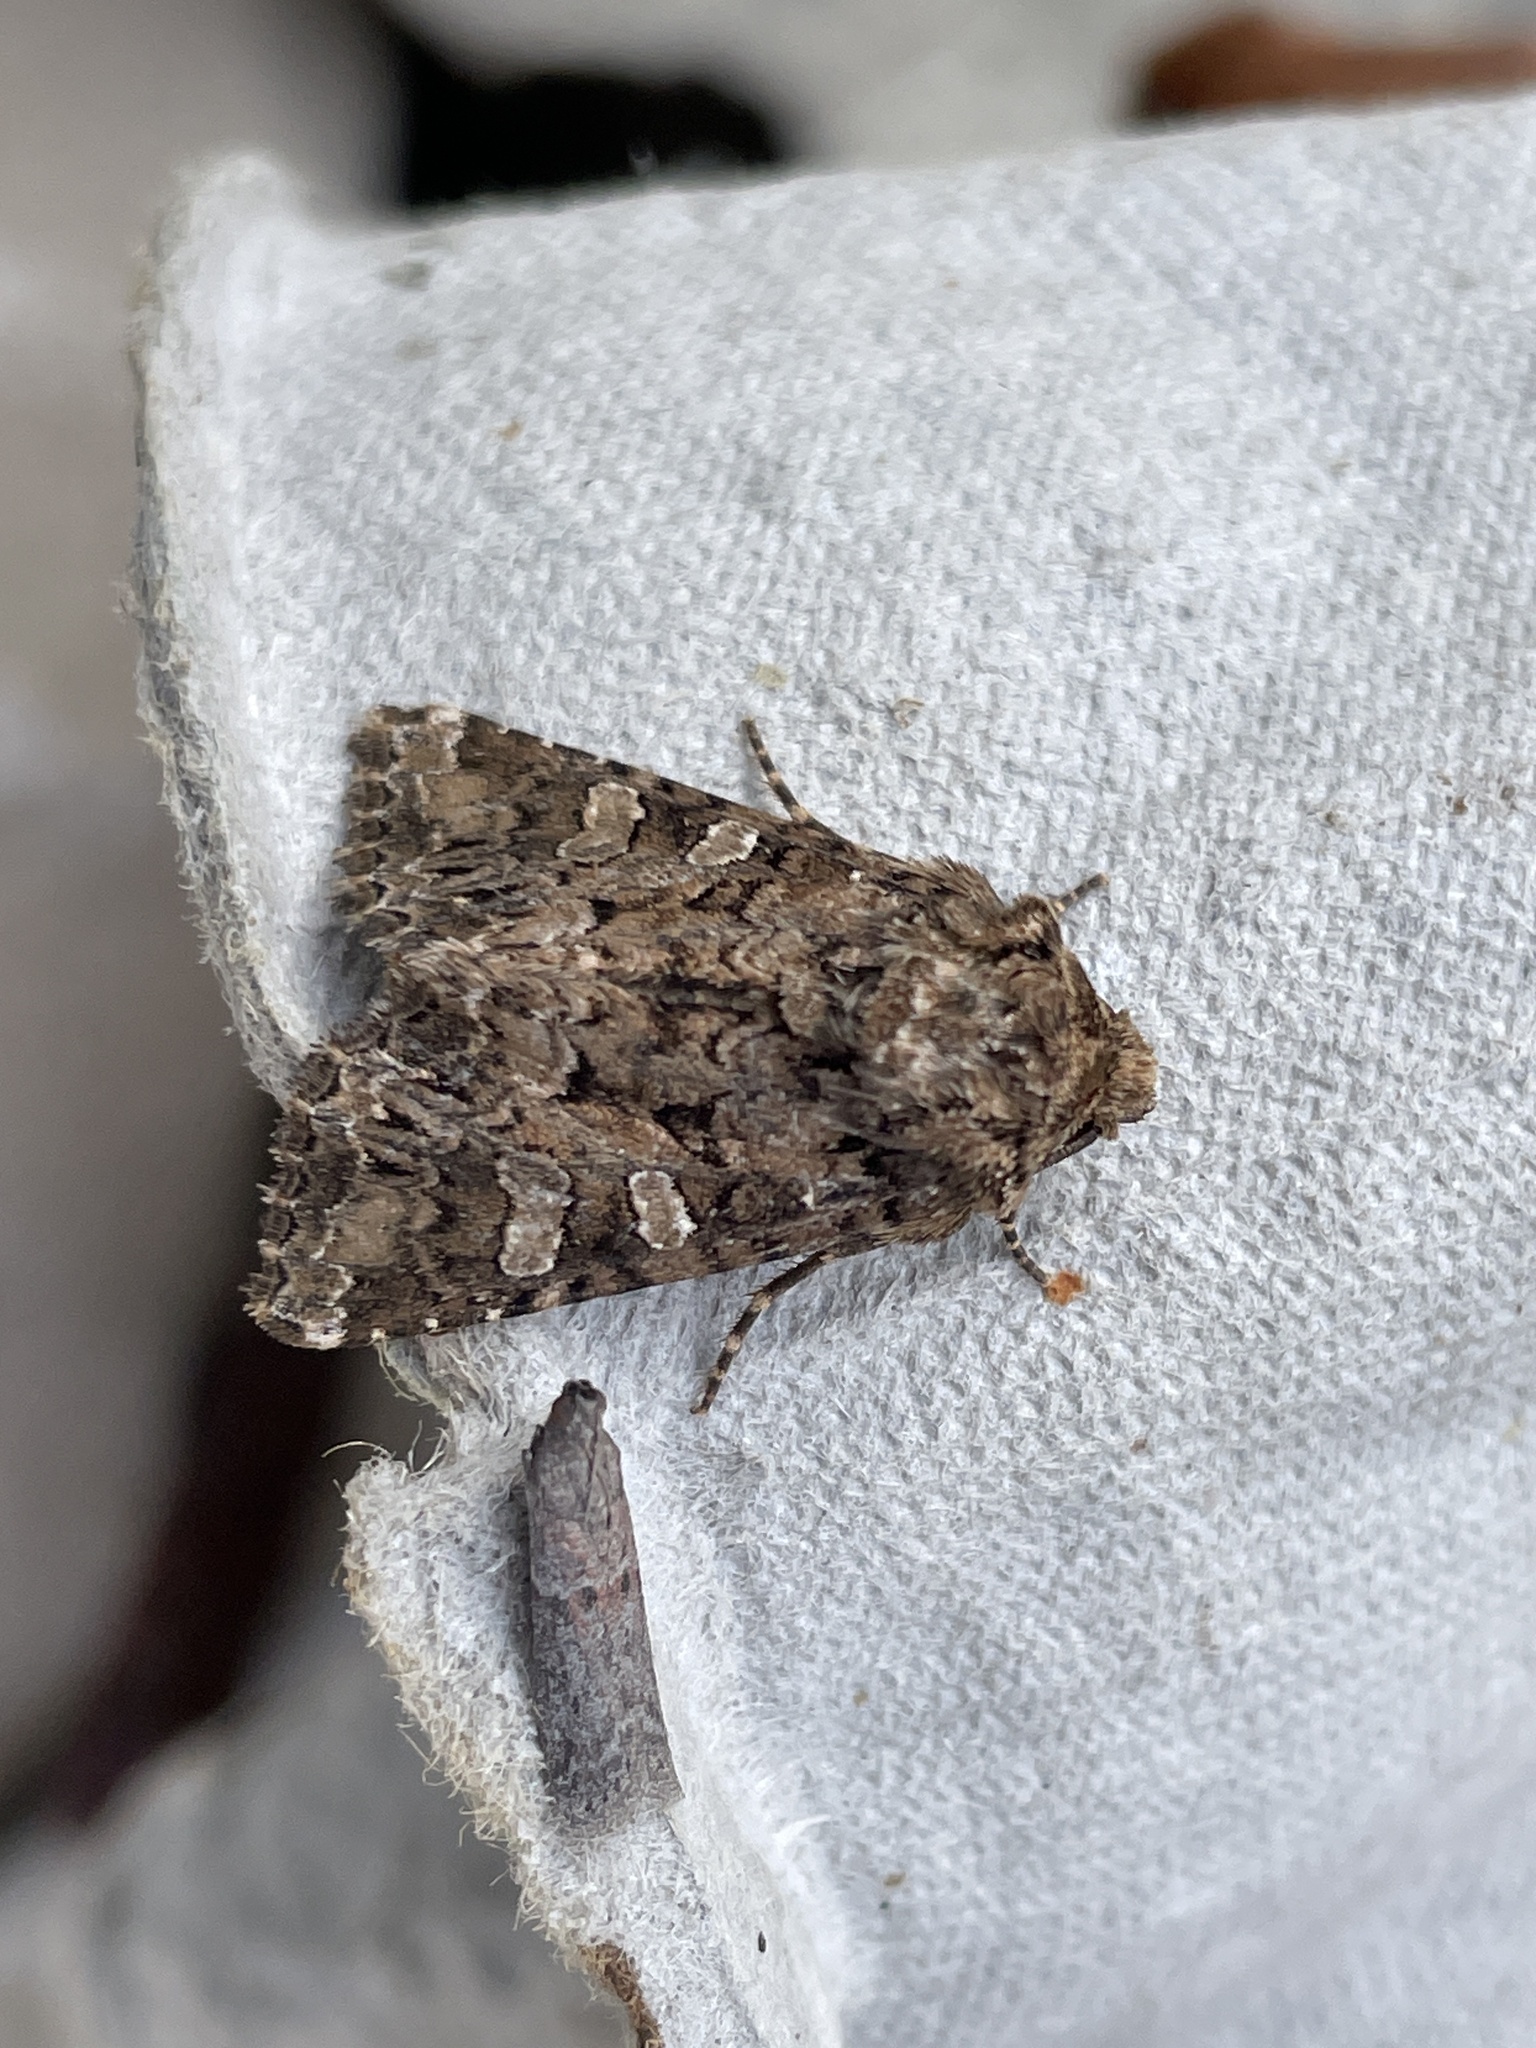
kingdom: Animalia
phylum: Arthropoda
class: Insecta
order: Lepidoptera
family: Noctuidae
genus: Hadena
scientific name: Hadena perplexa
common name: Tawny shears
